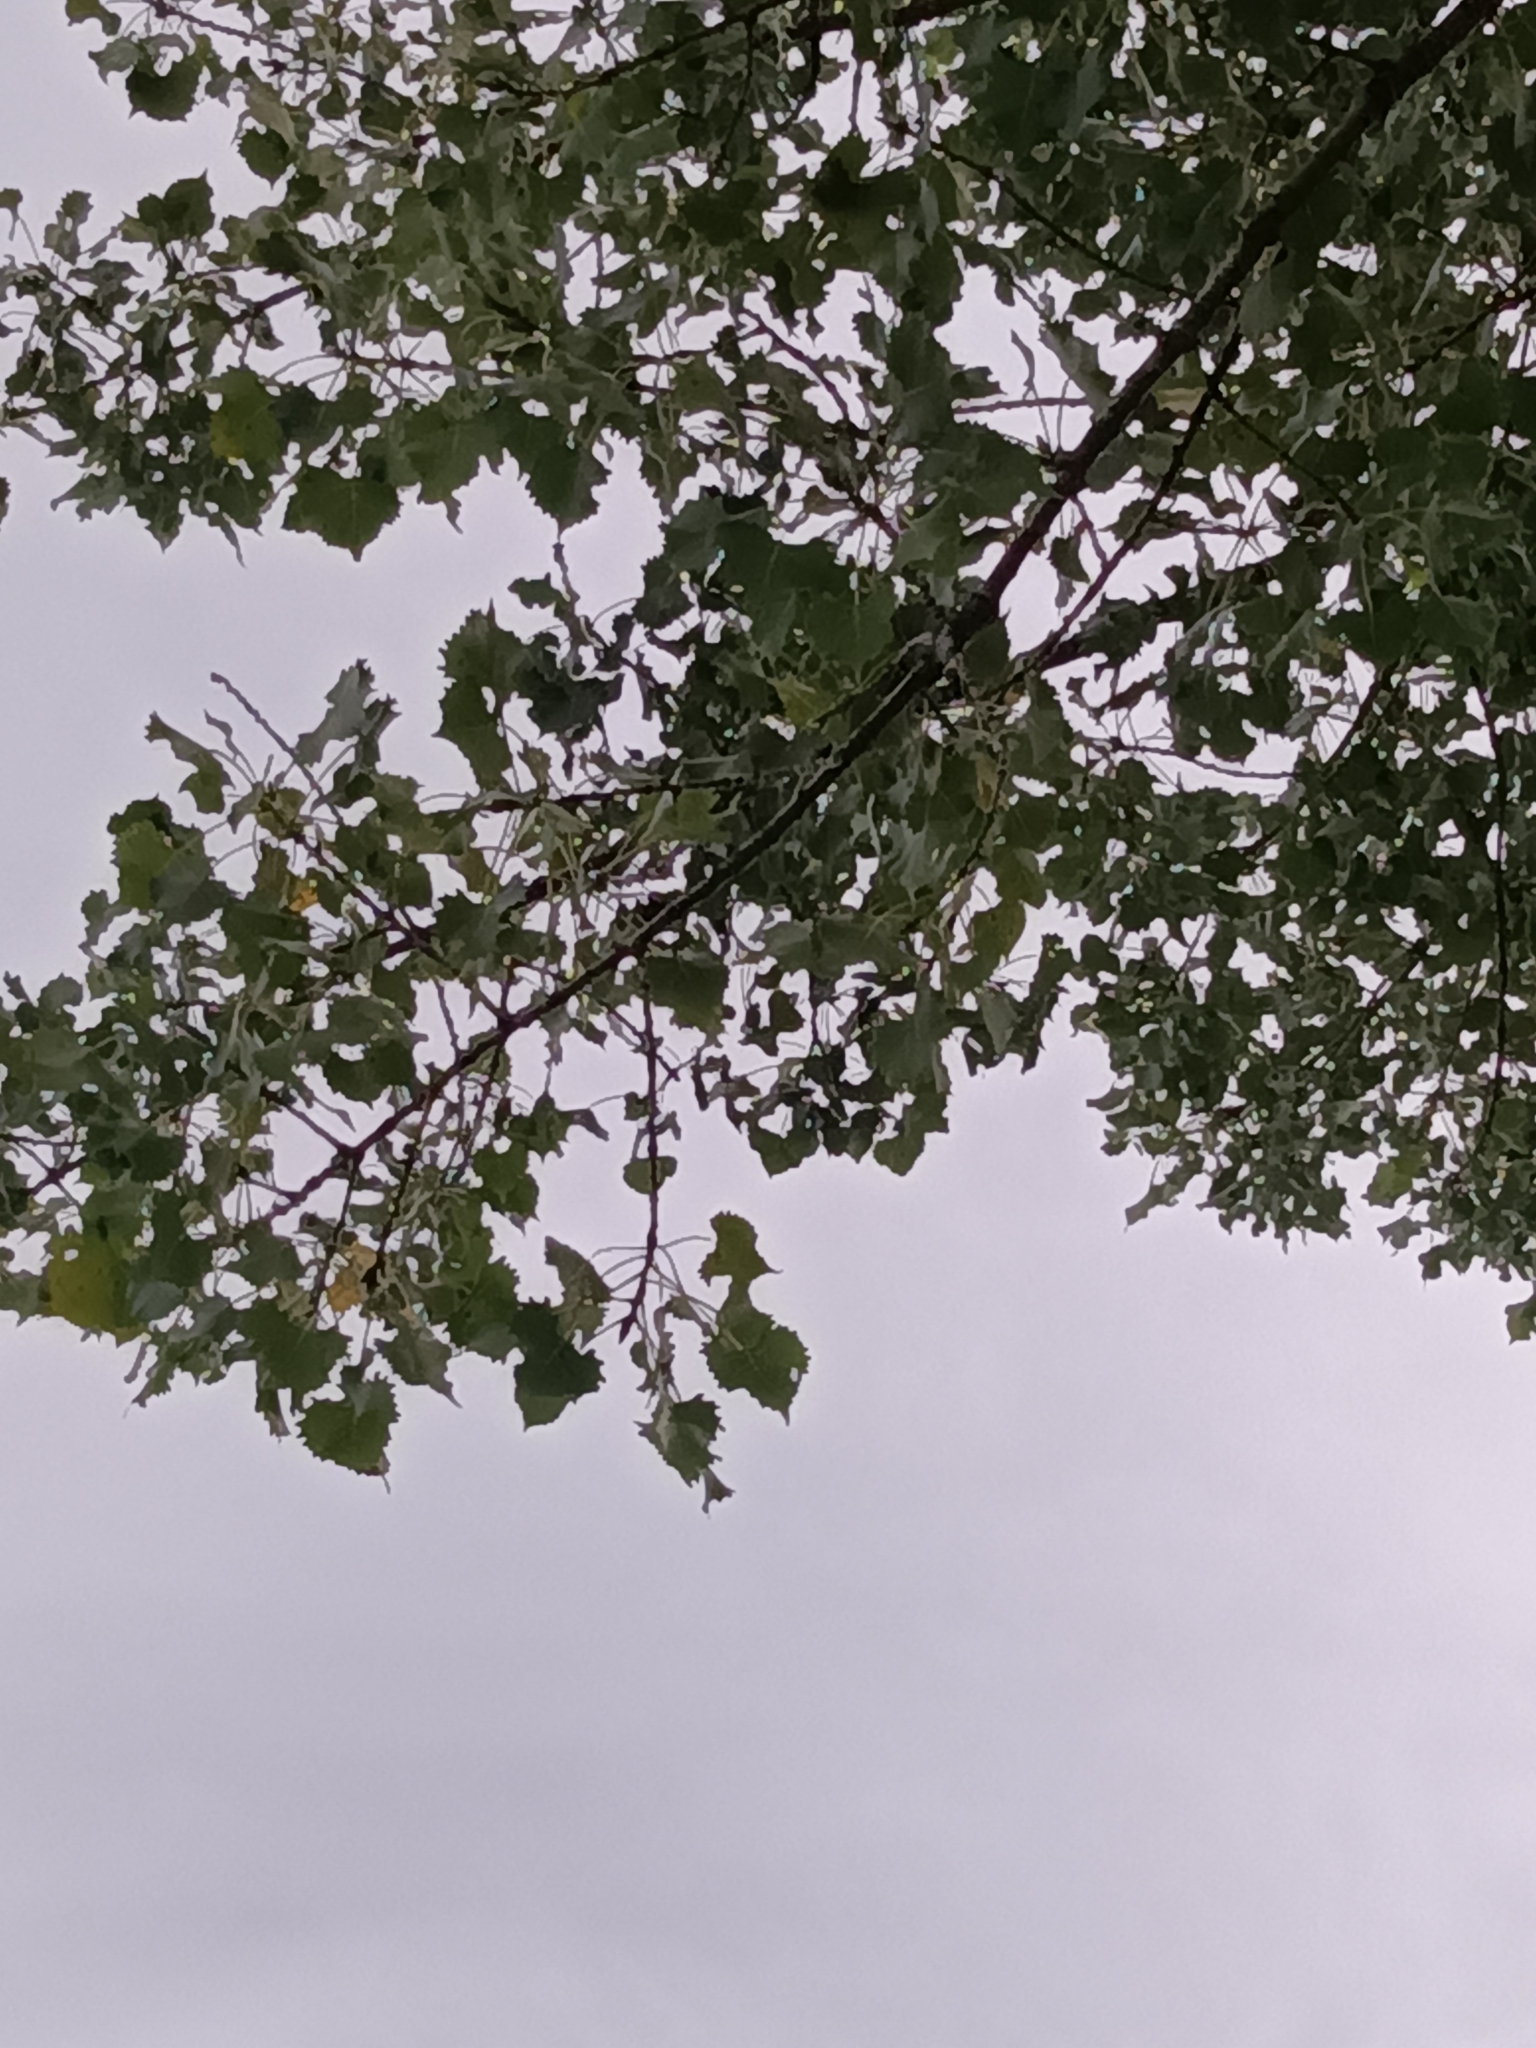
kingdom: Plantae
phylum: Tracheophyta
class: Magnoliopsida
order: Malpighiales
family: Salicaceae
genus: Populus
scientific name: Populus deltoides
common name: Eastern cottonwood
